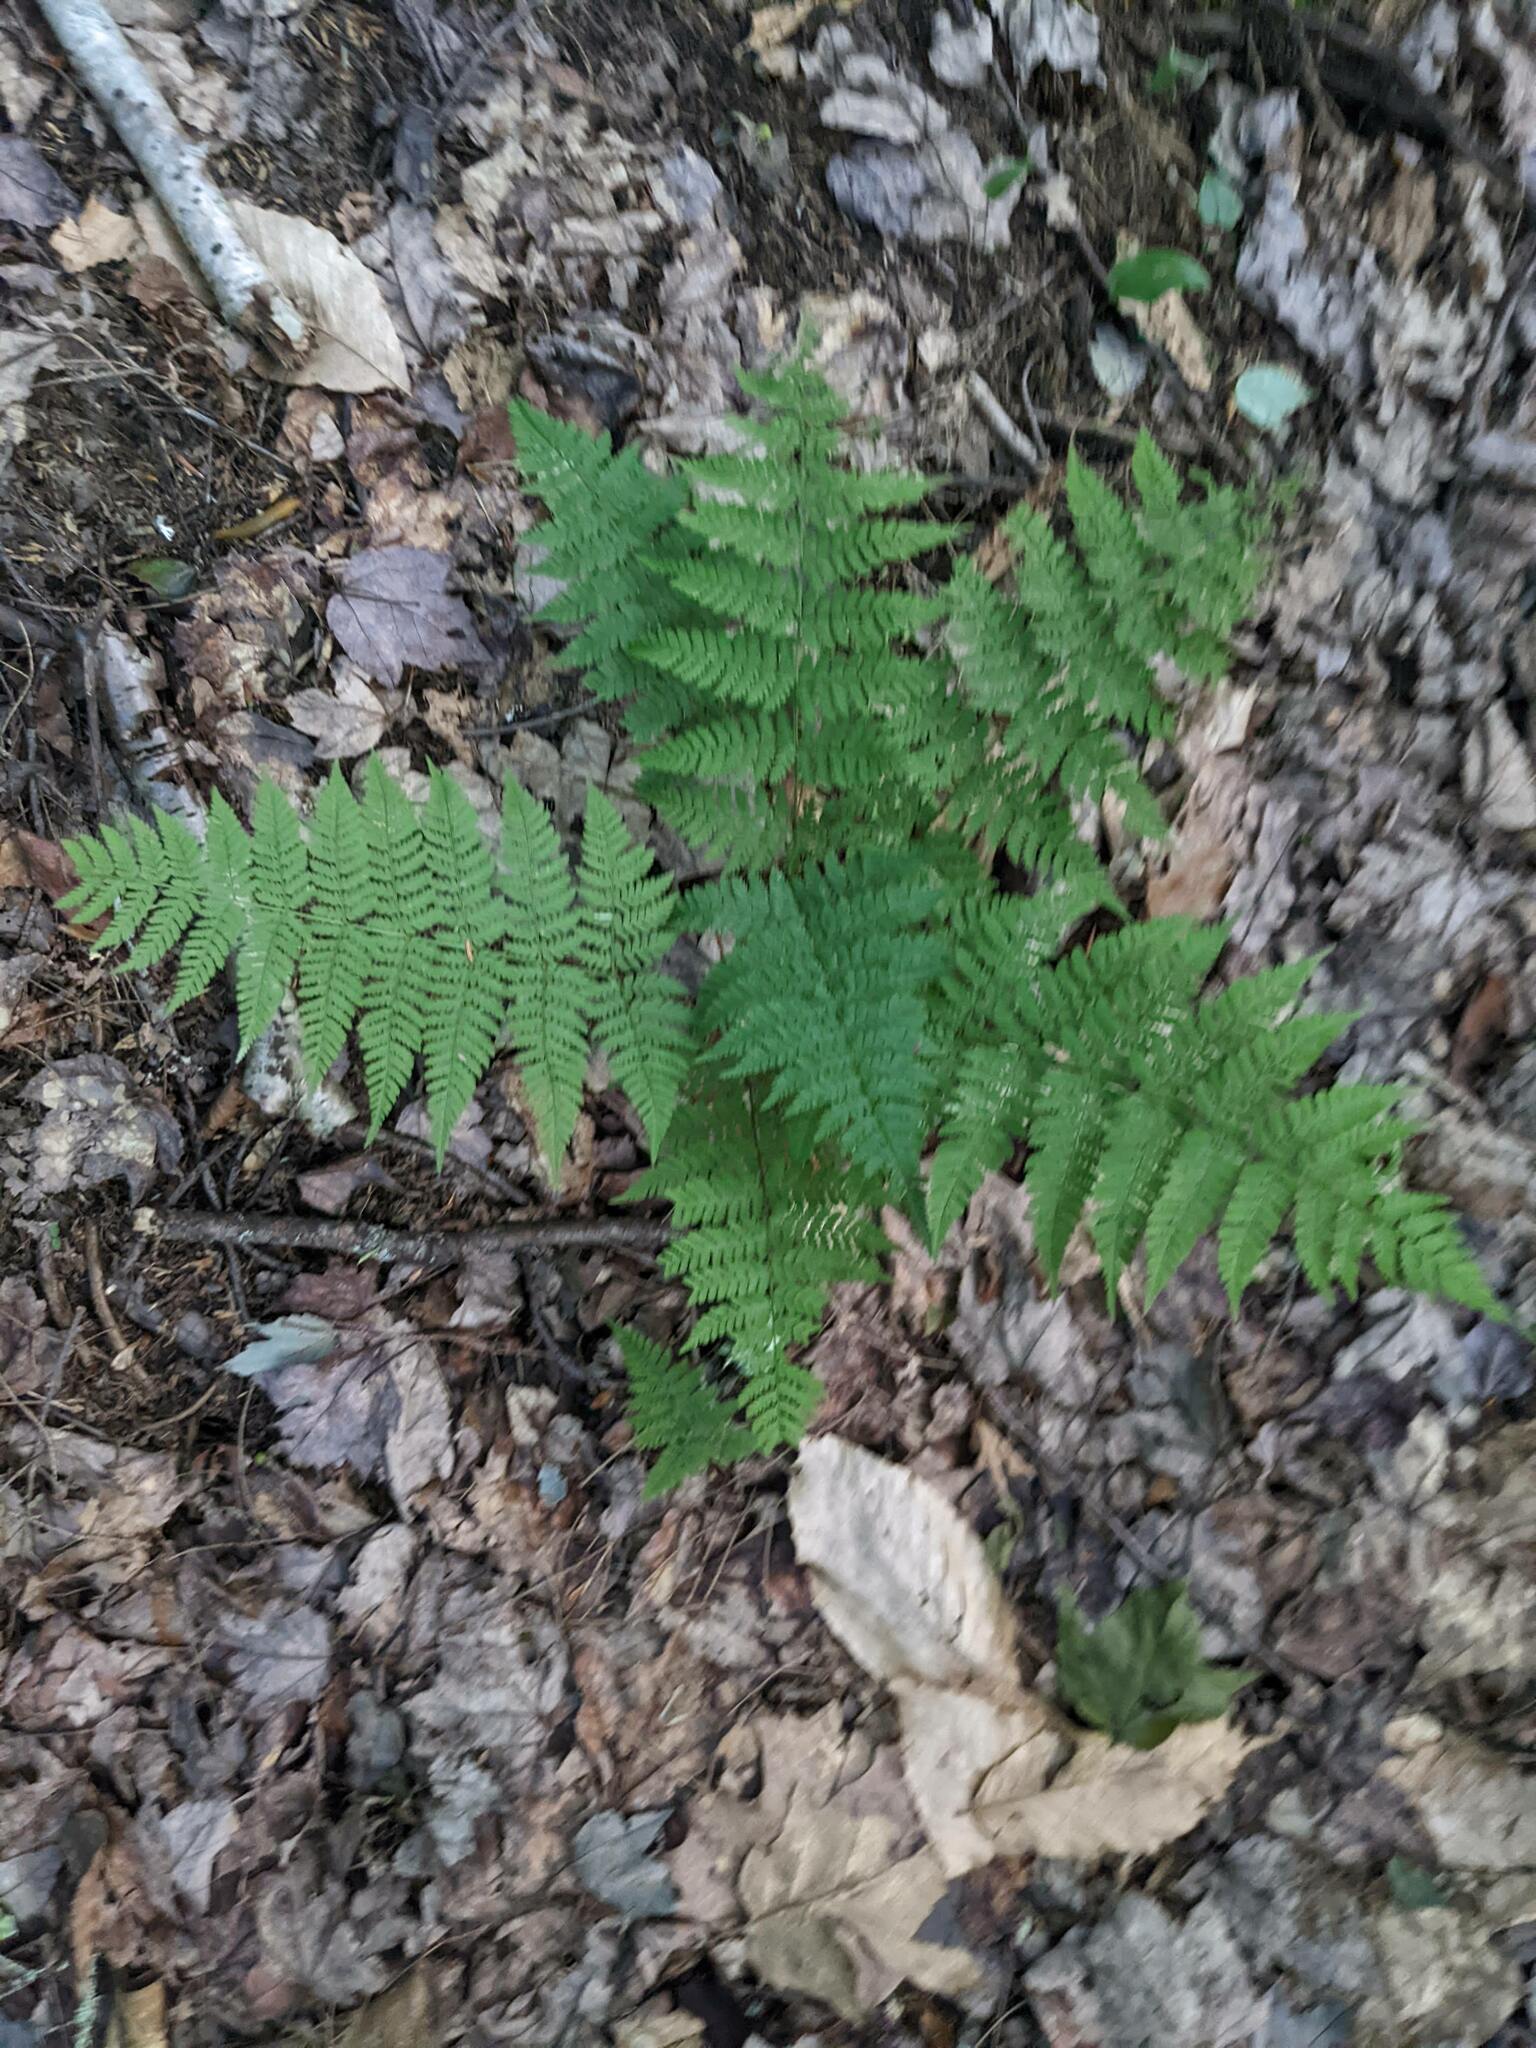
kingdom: Plantae
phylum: Tracheophyta
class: Polypodiopsida
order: Polypodiales
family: Dryopteridaceae
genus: Dryopteris
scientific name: Dryopteris intermedia
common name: Evergreen wood fern
